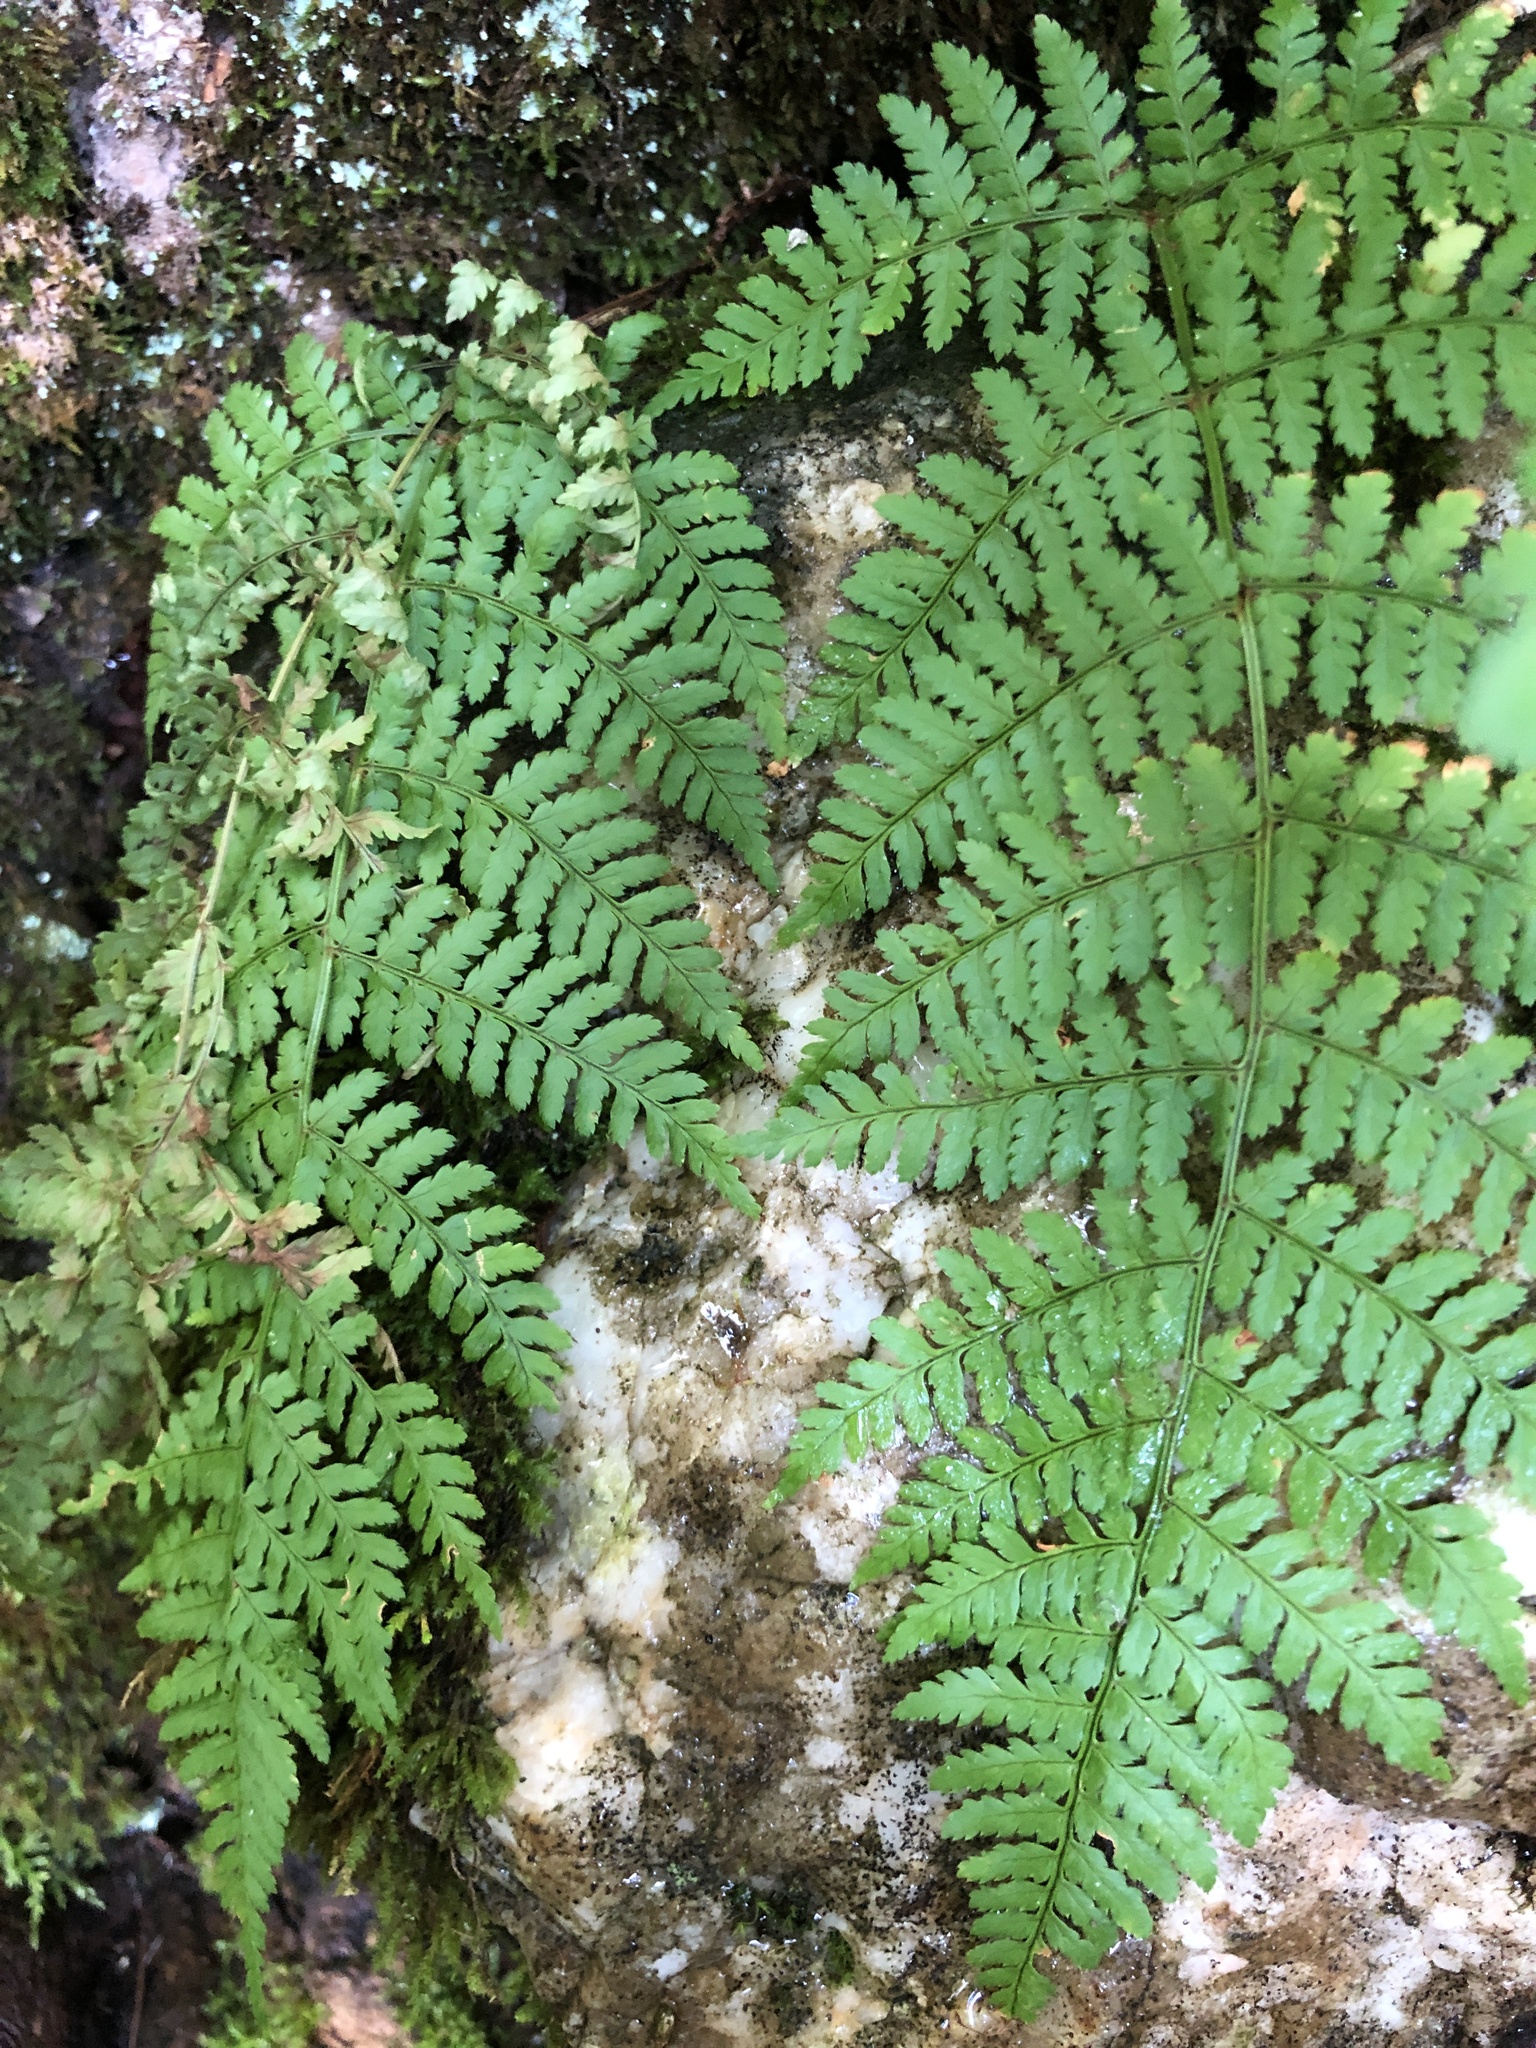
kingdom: Plantae
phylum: Tracheophyta
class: Polypodiopsida
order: Polypodiales
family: Dryopteridaceae
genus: Dryopteris
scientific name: Dryopteris intermedia
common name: Evergreen wood fern
